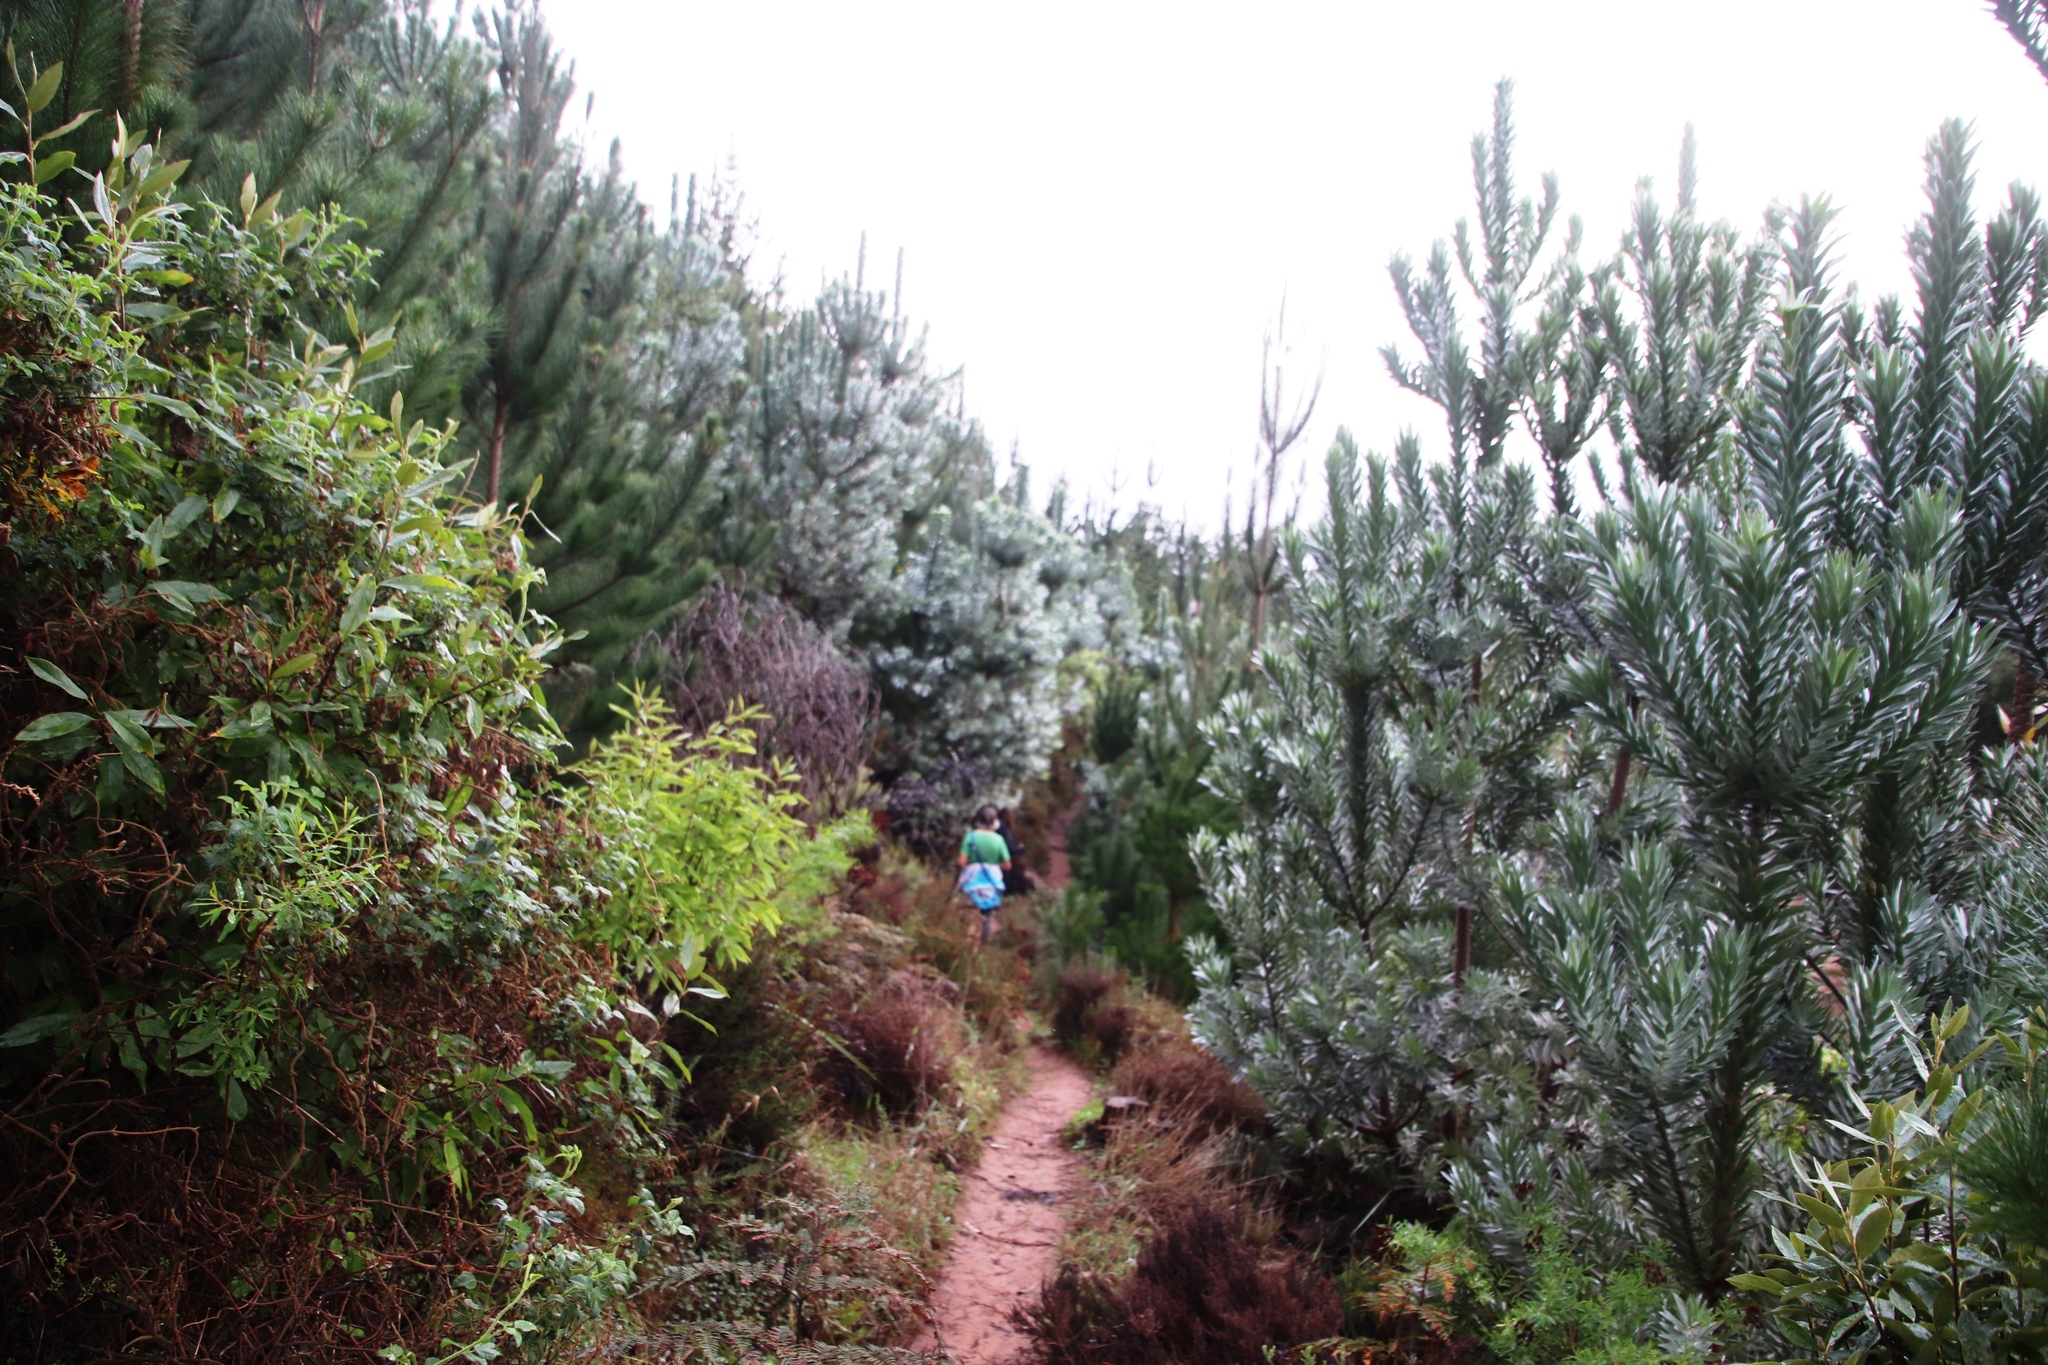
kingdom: Plantae
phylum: Tracheophyta
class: Magnoliopsida
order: Proteales
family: Proteaceae
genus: Leucadendron
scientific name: Leucadendron argenteum
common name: Cape silver tree
